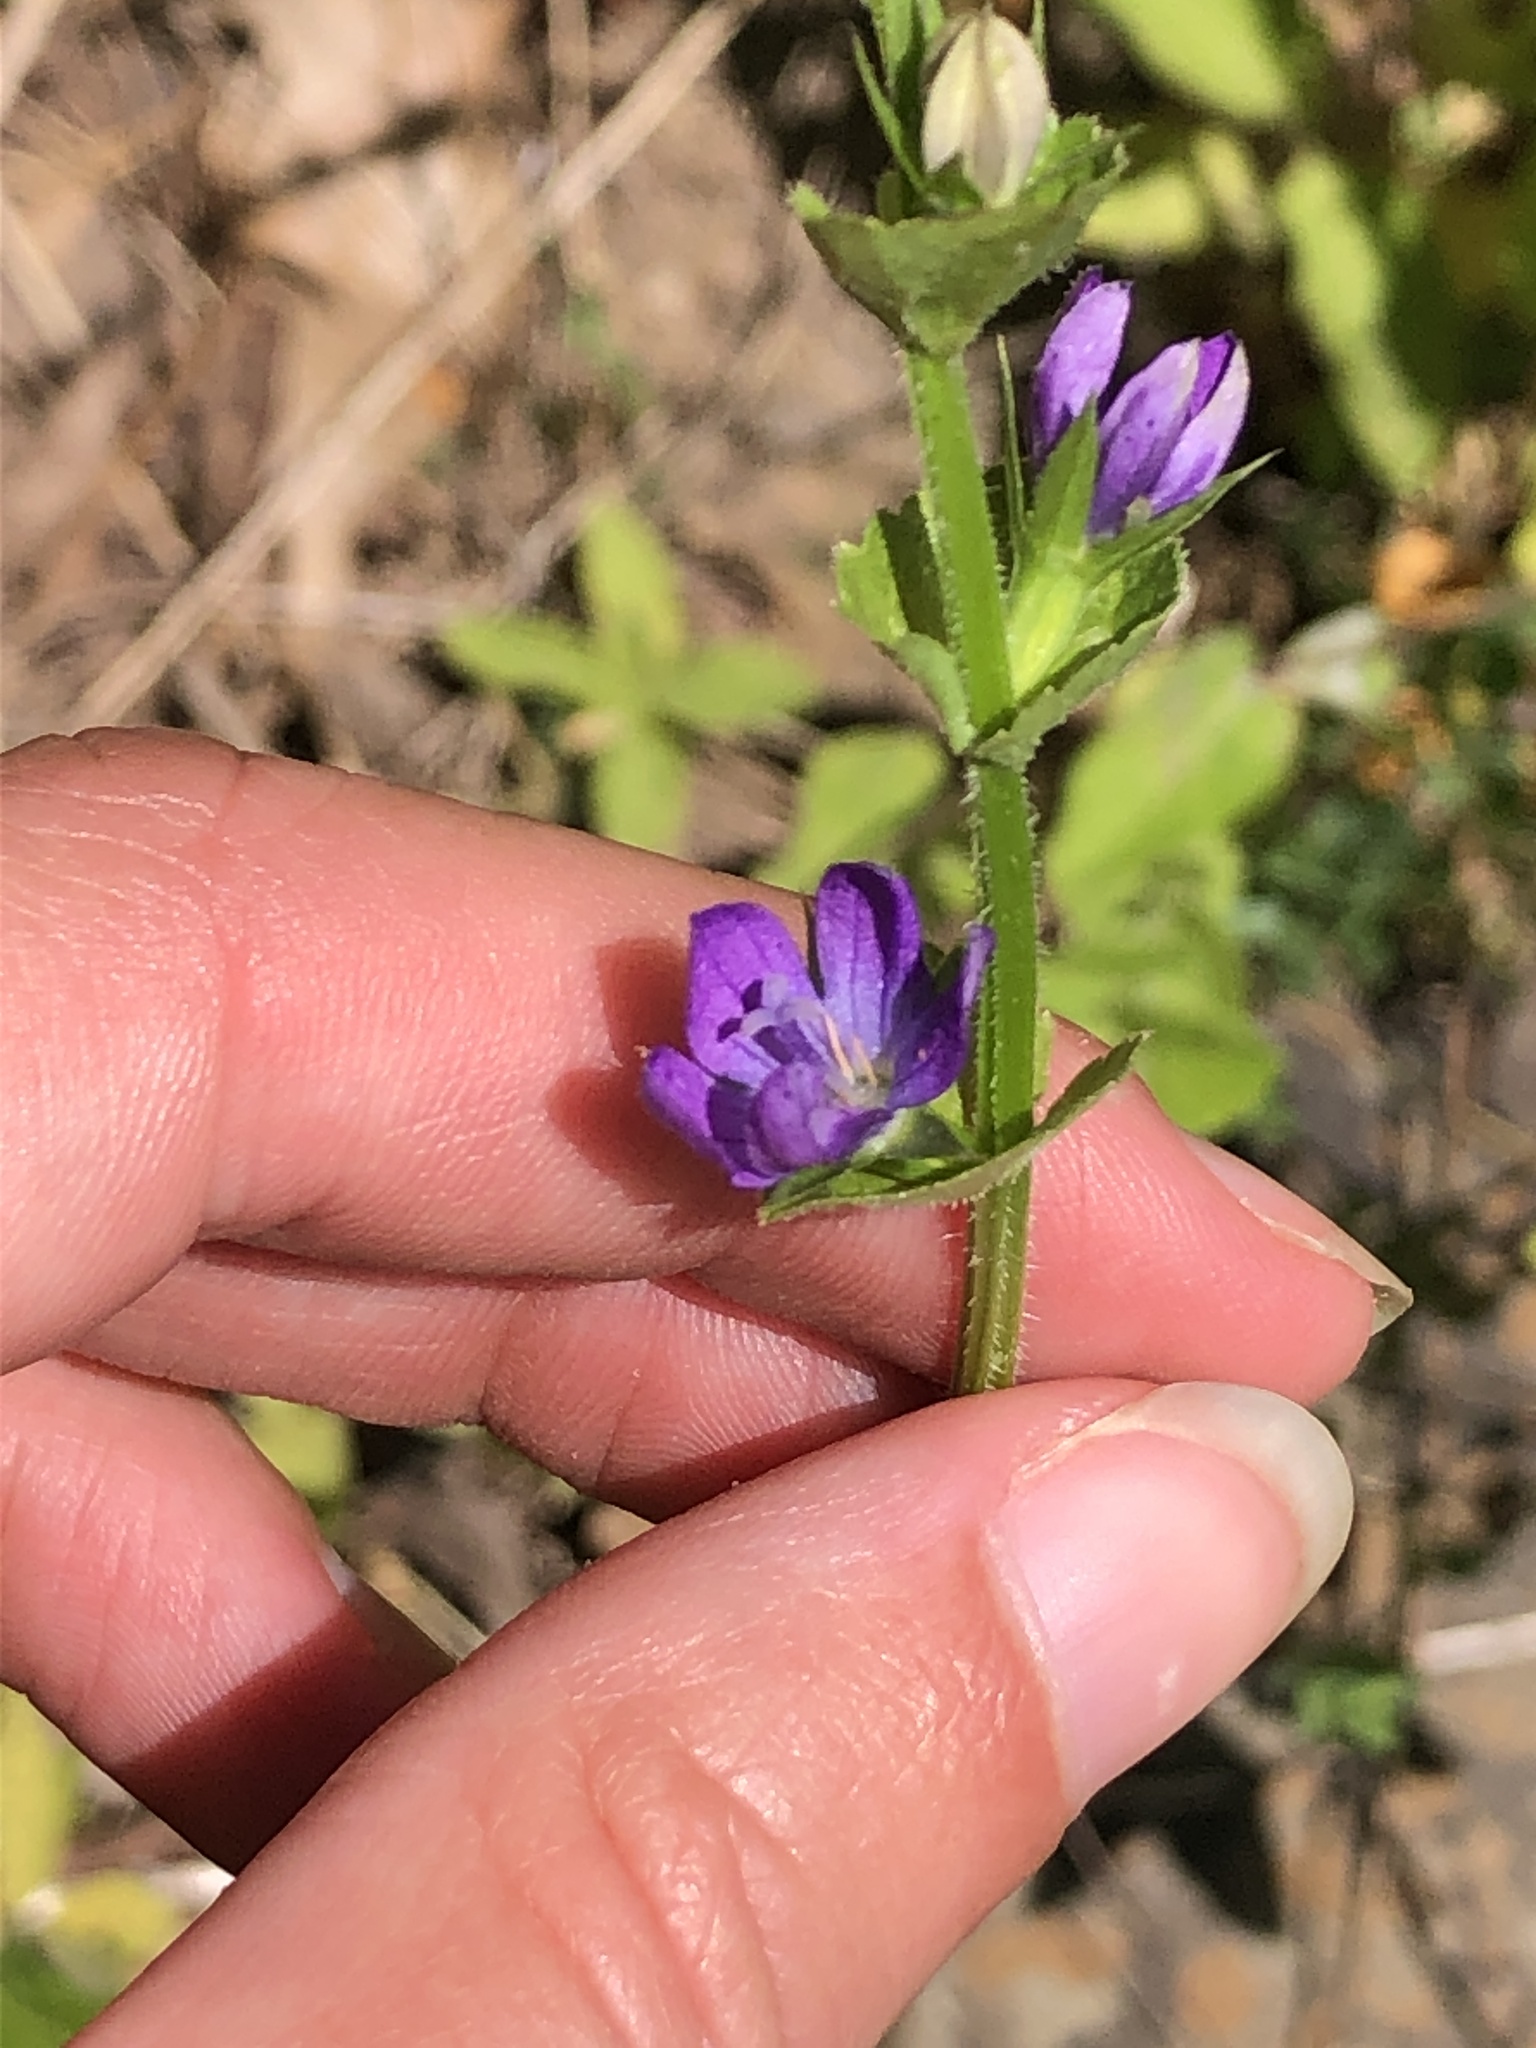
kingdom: Plantae
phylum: Tracheophyta
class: Magnoliopsida
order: Asterales
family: Campanulaceae
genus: Triodanis
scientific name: Triodanis perfoliata
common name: Clasping venus' looking-glass
